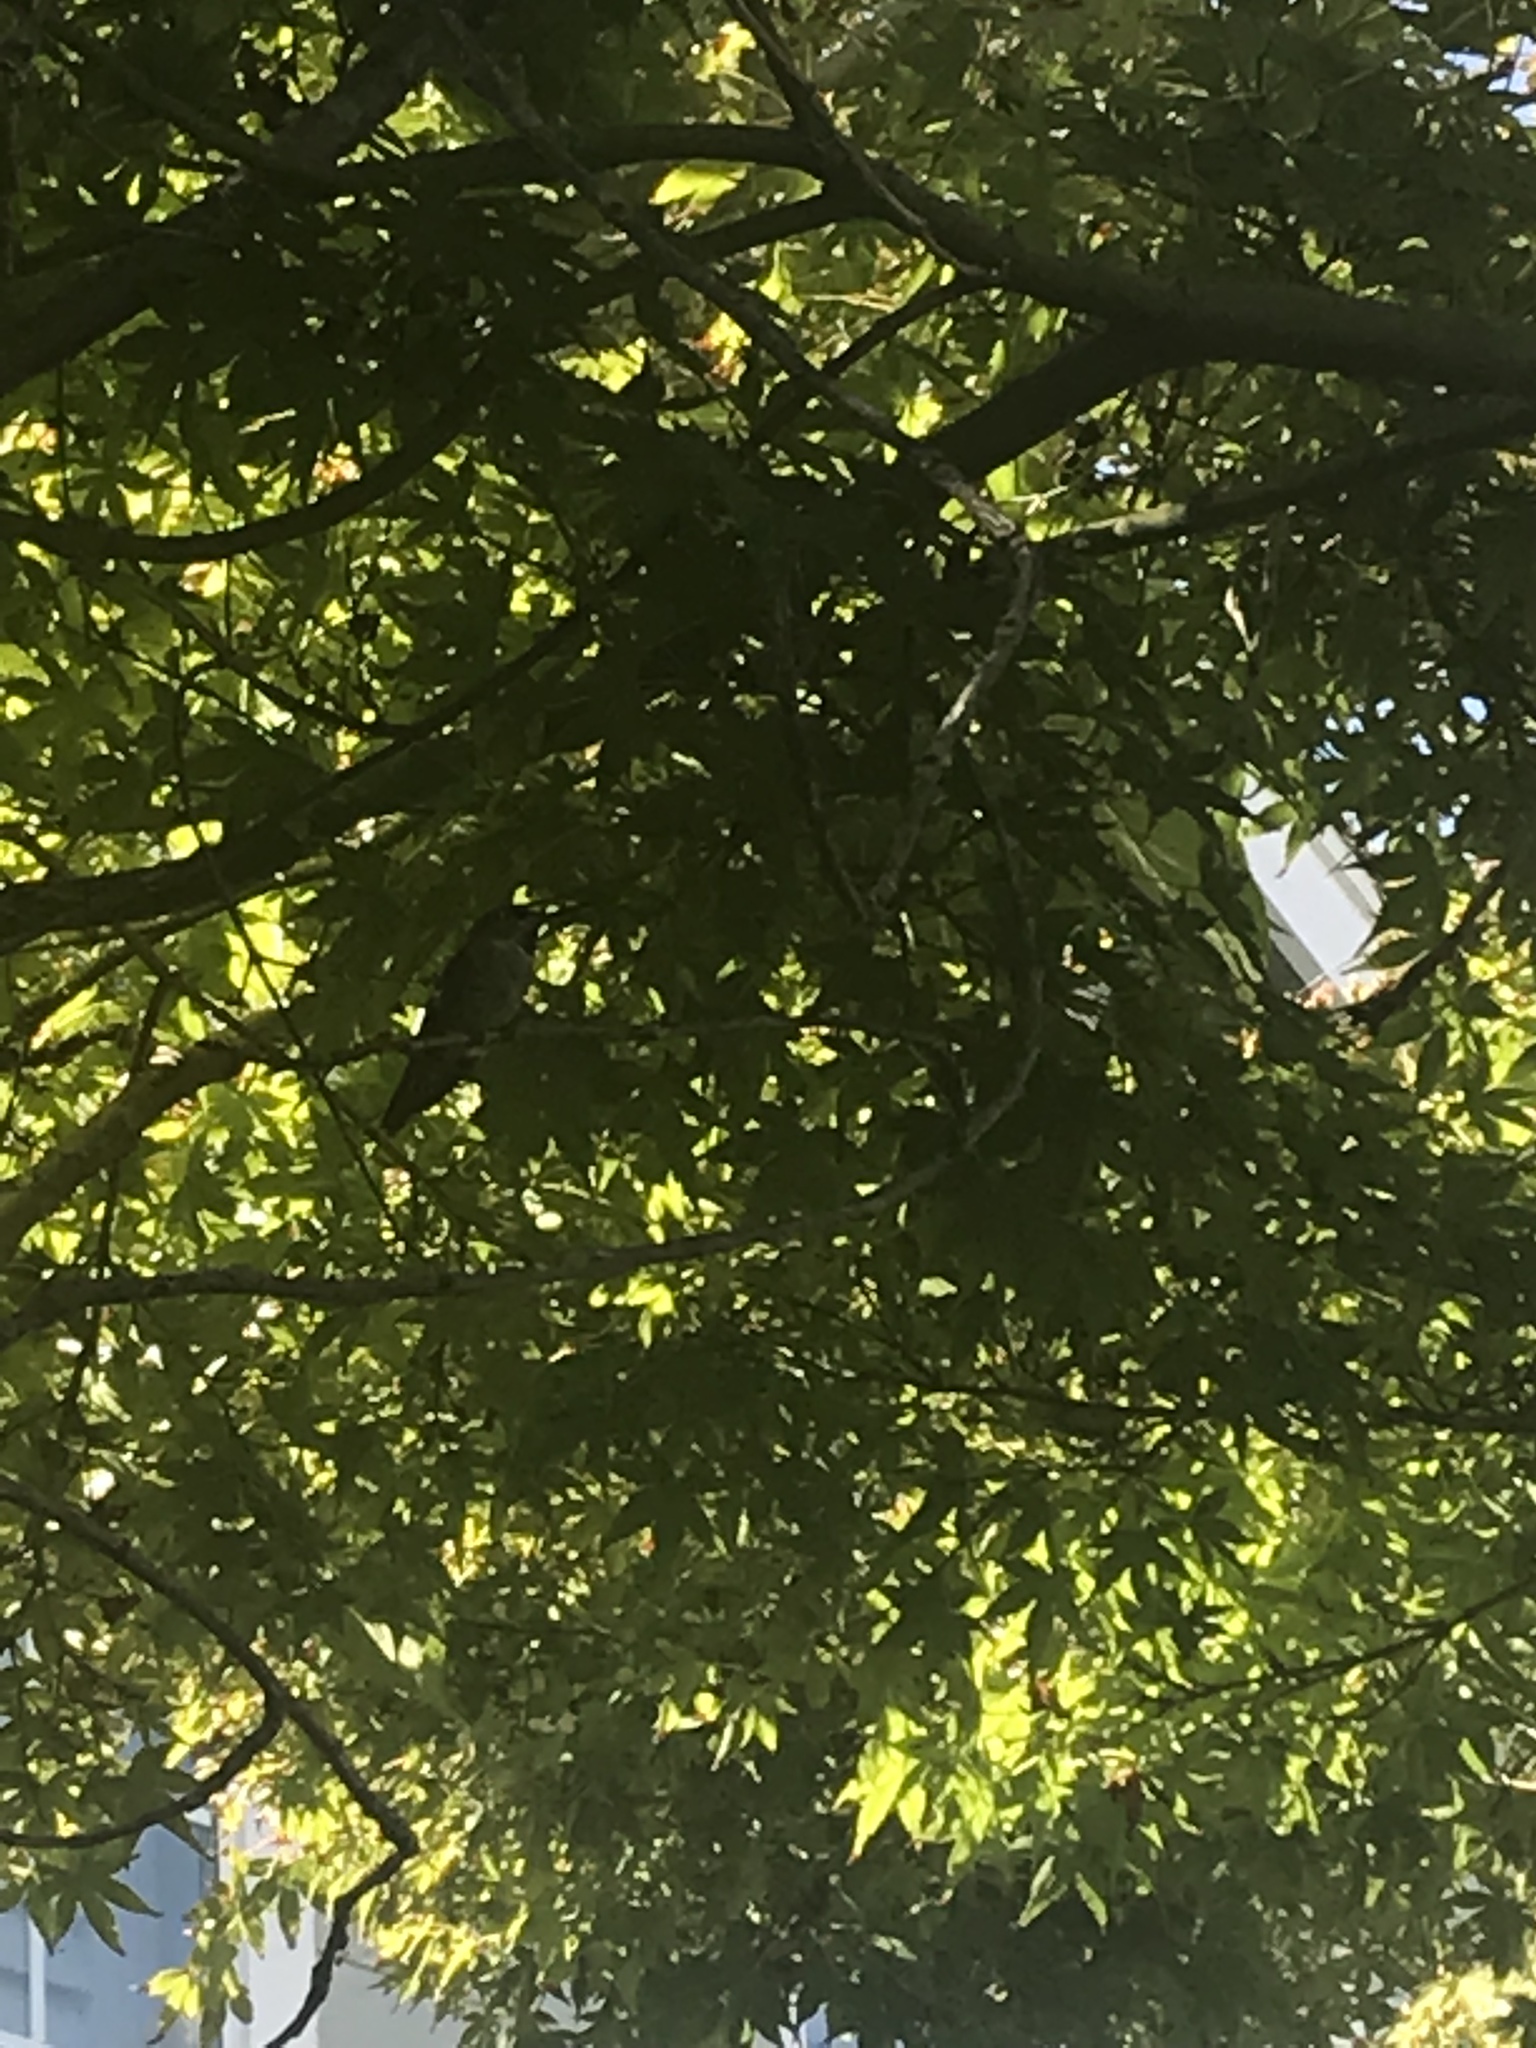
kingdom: Animalia
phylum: Chordata
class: Aves
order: Apodiformes
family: Trochilidae
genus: Calypte
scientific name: Calypte anna
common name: Anna's hummingbird
